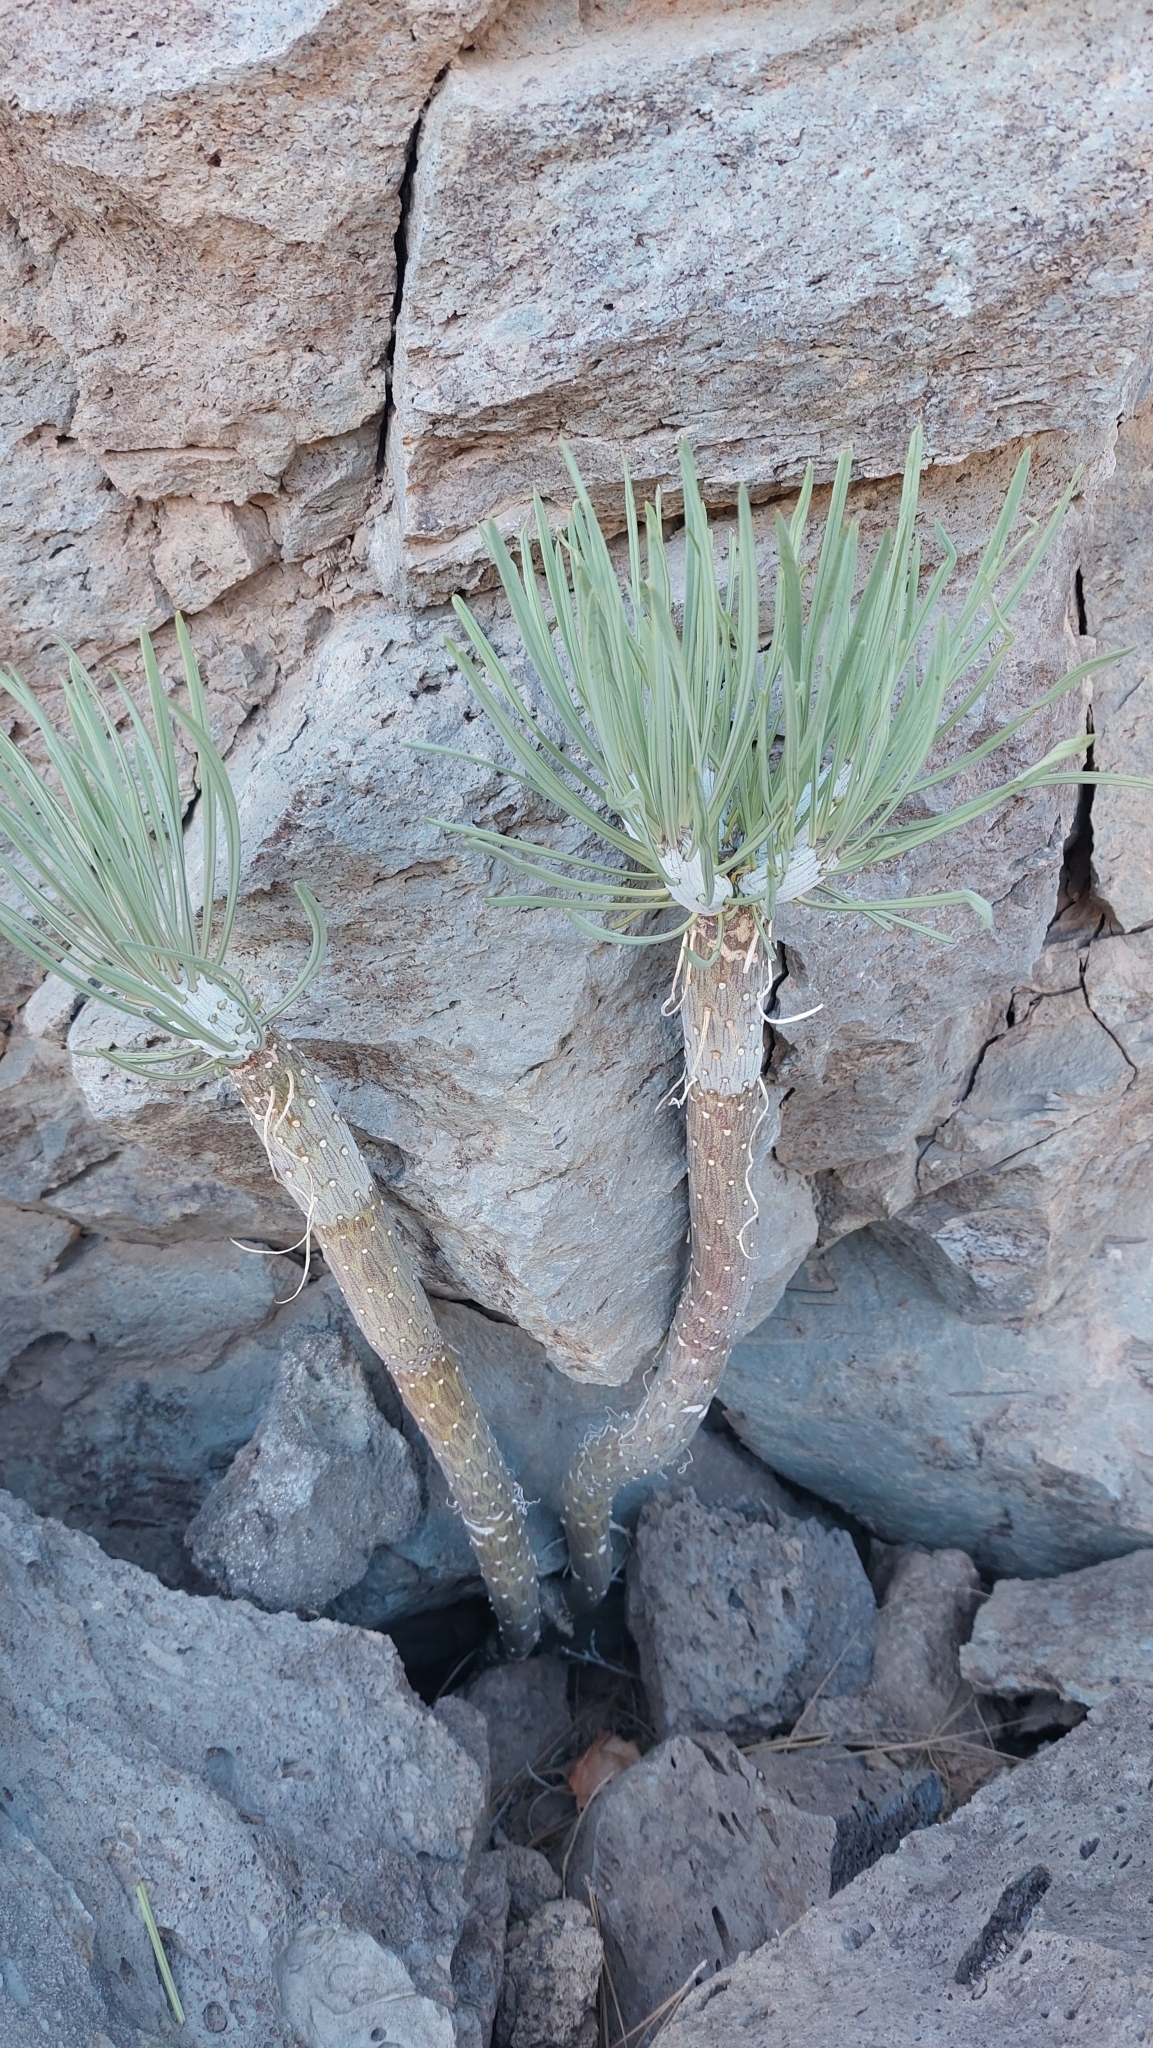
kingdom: Plantae
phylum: Tracheophyta
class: Magnoliopsida
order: Asterales
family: Asteraceae
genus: Kleinia
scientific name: Kleinia neriifolia
